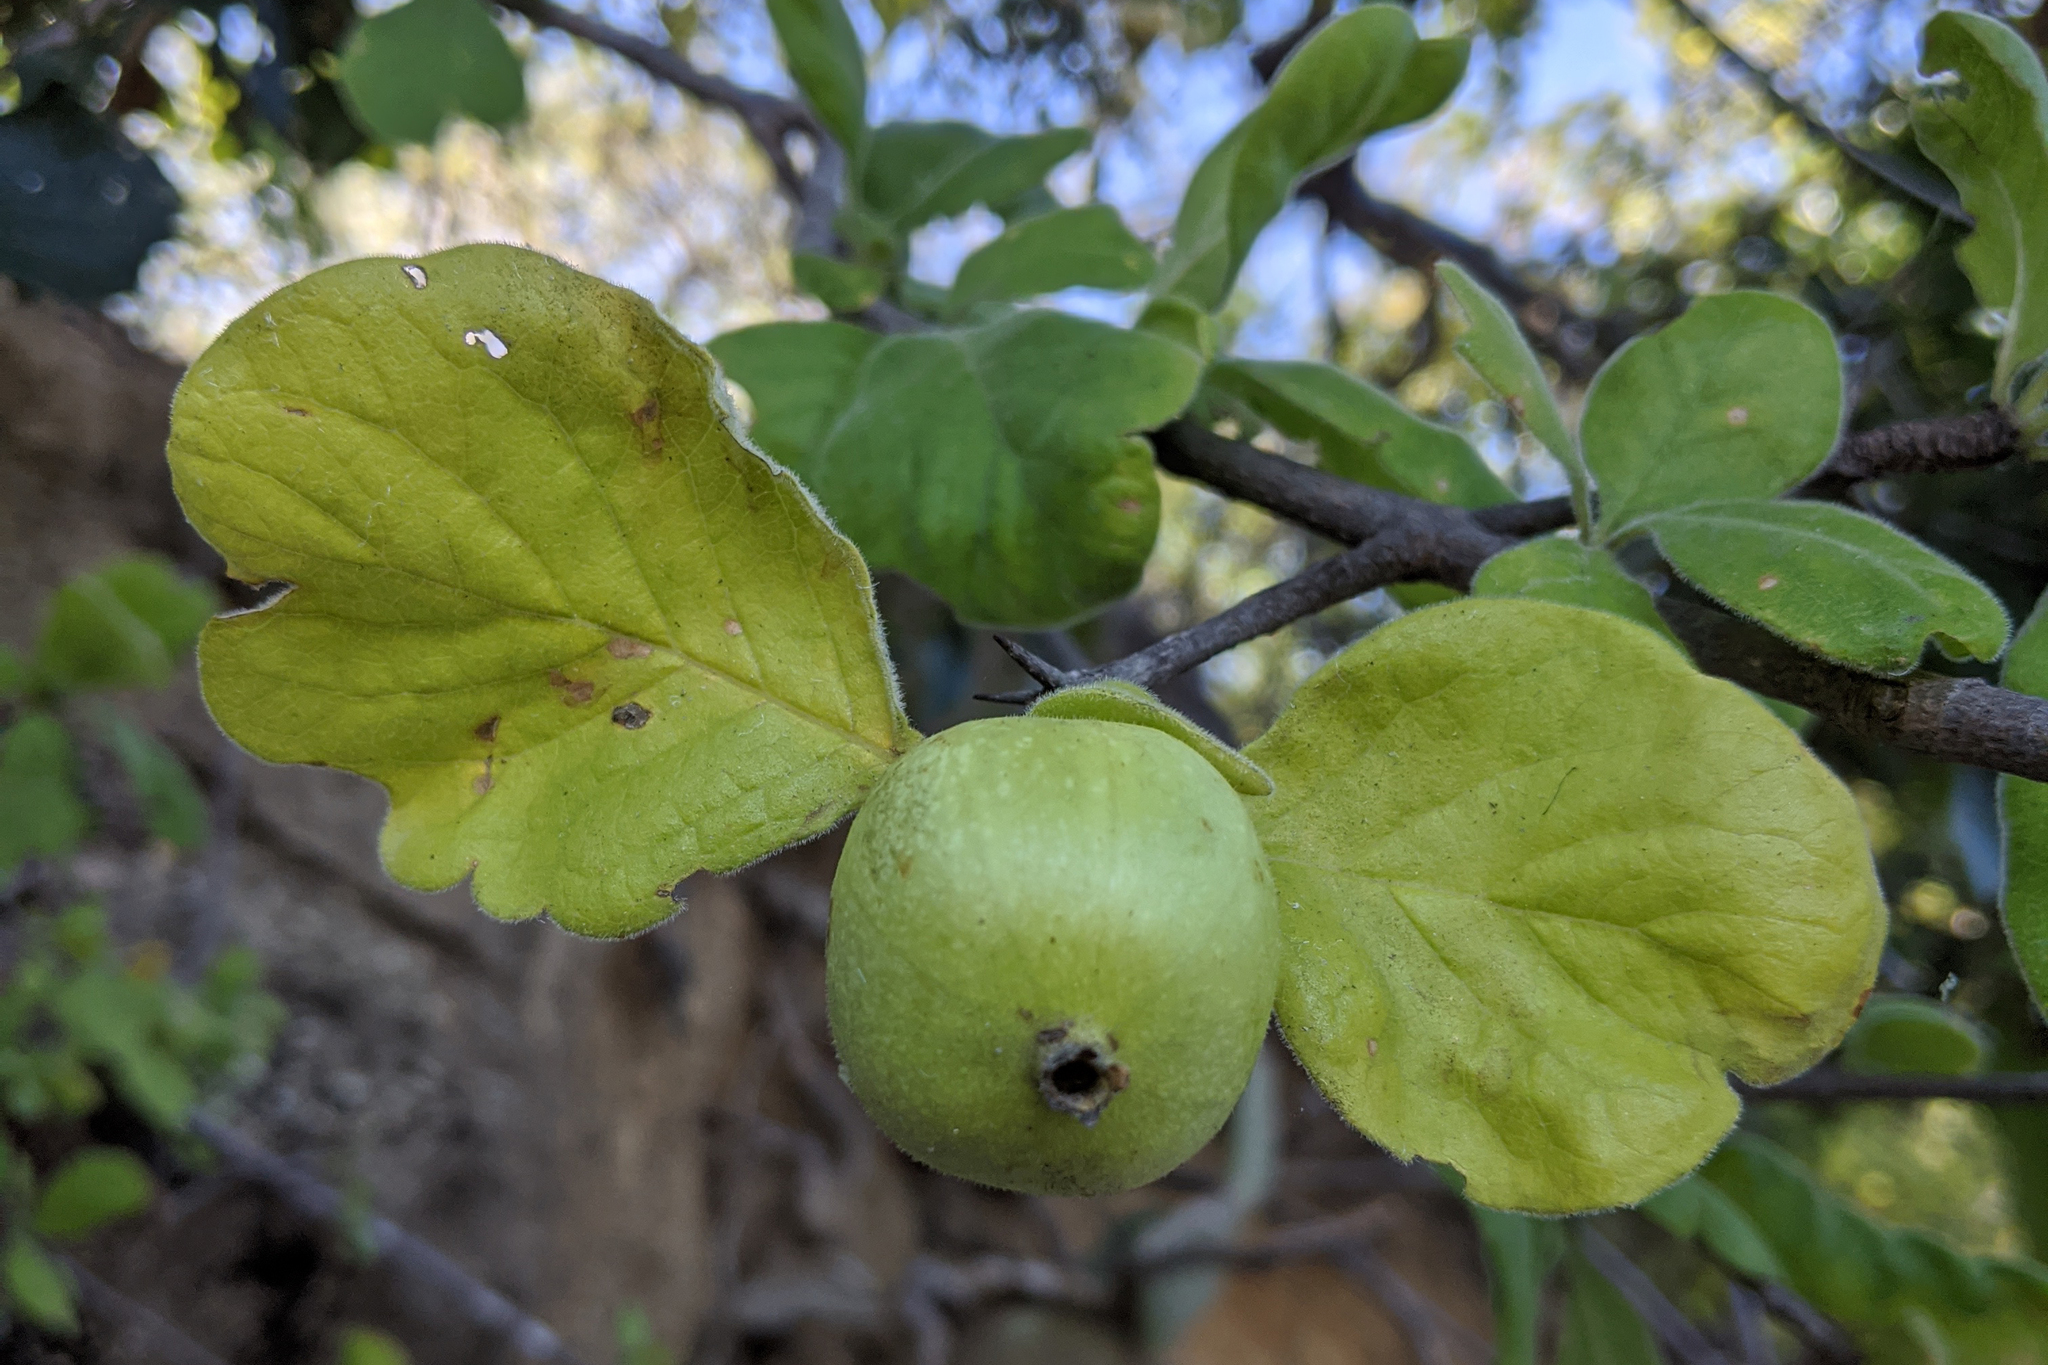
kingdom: Plantae
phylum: Tracheophyta
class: Magnoliopsida
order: Gentianales
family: Rubiaceae
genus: Randia
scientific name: Randia capitata
